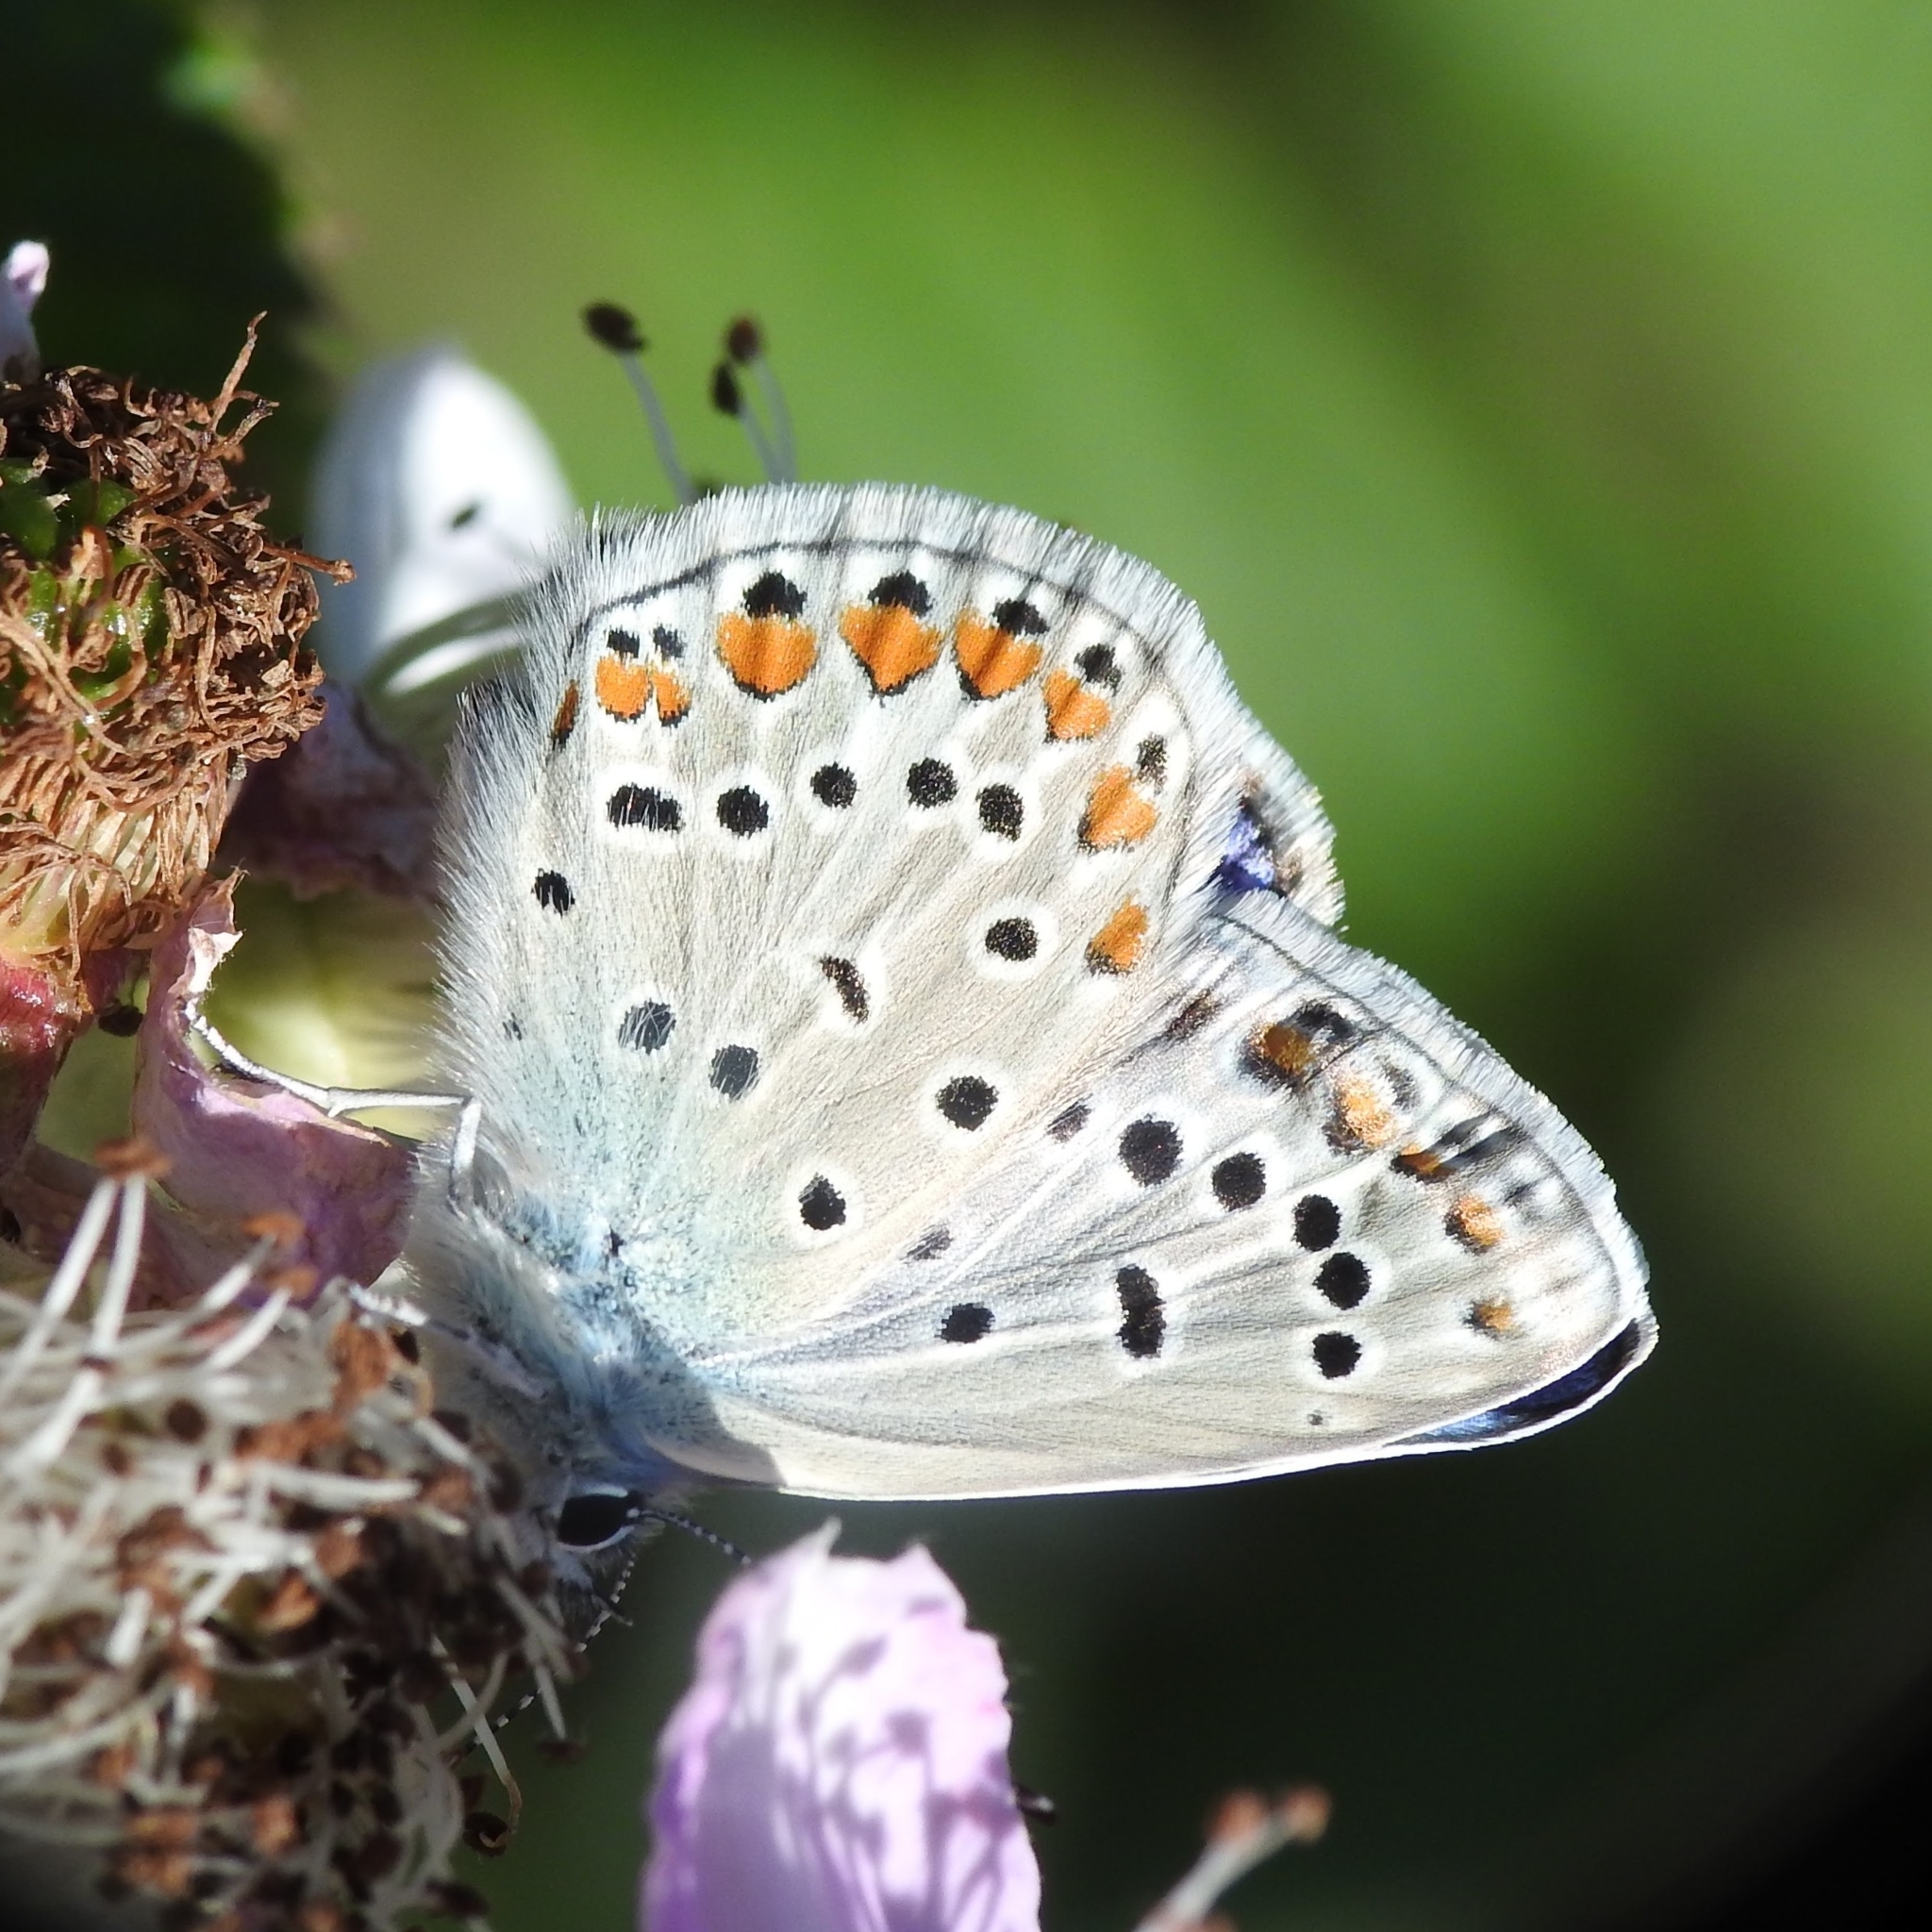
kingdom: Animalia
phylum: Arthropoda
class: Insecta
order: Lepidoptera
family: Lycaenidae
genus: Polyommatus
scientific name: Polyommatus icarus
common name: Common blue
